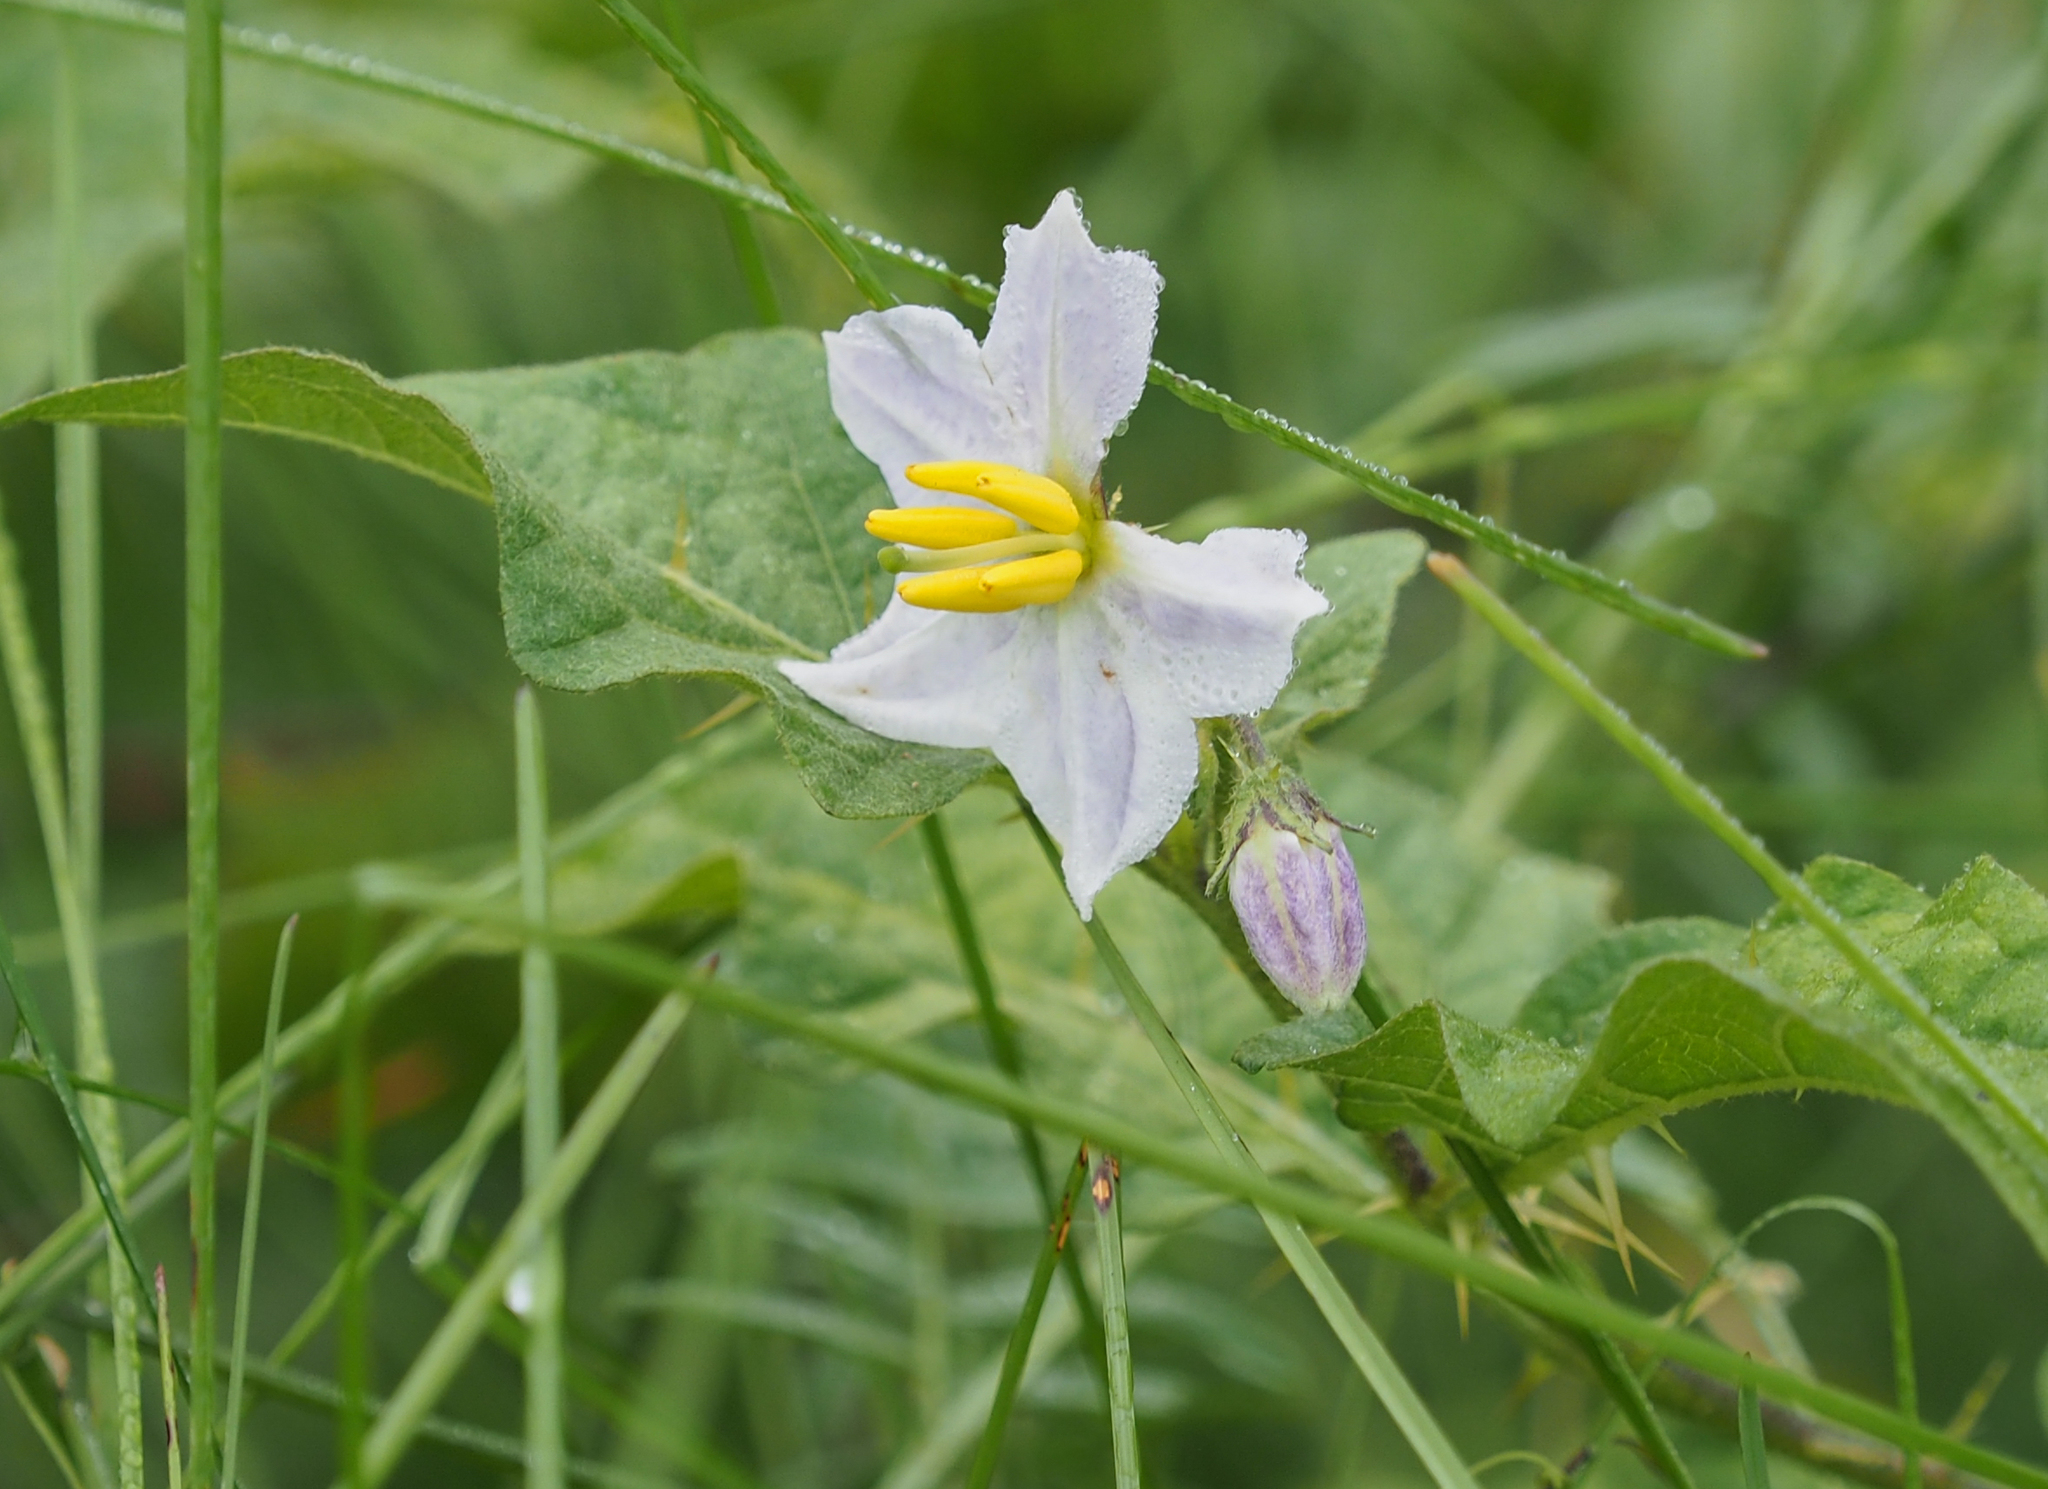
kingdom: Plantae
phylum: Tracheophyta
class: Magnoliopsida
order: Solanales
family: Solanaceae
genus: Solanum
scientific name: Solanum carolinense
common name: Horse-nettle
